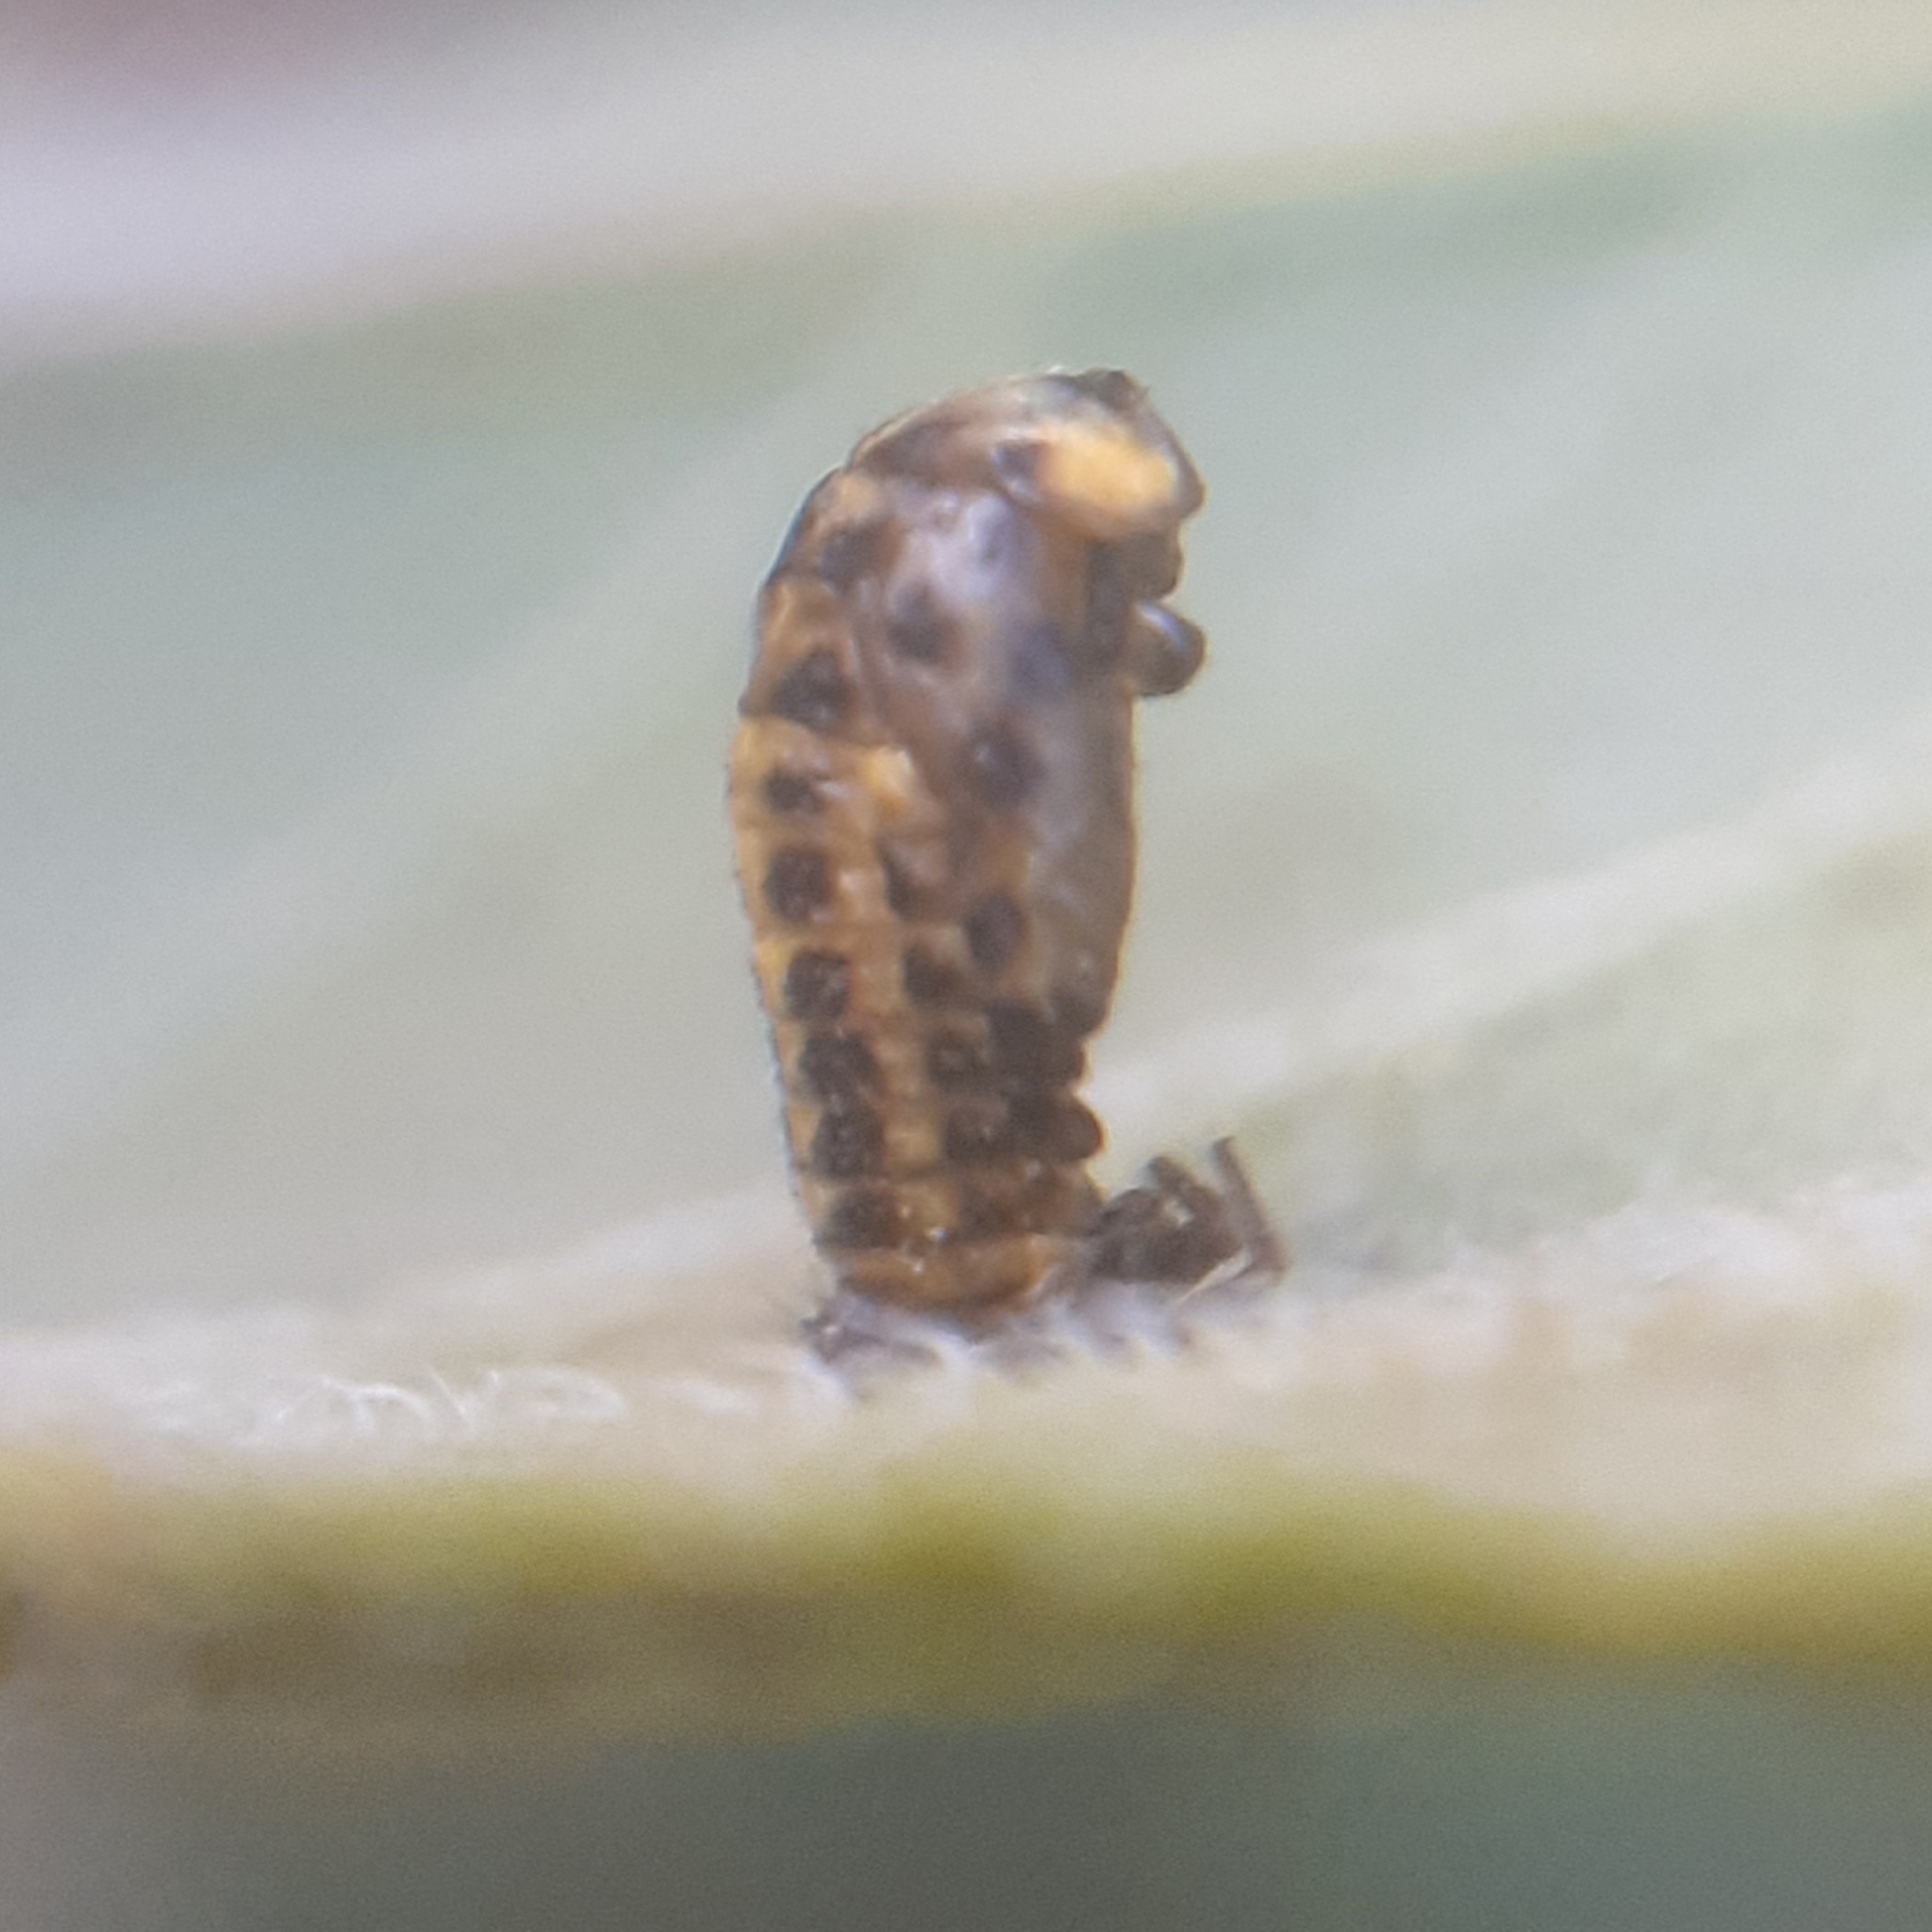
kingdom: Animalia
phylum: Arthropoda
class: Insecta
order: Coleoptera
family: Coccinellidae
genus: Psyllobora
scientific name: Psyllobora vigintiduopunctata
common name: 22-spot ladybird
